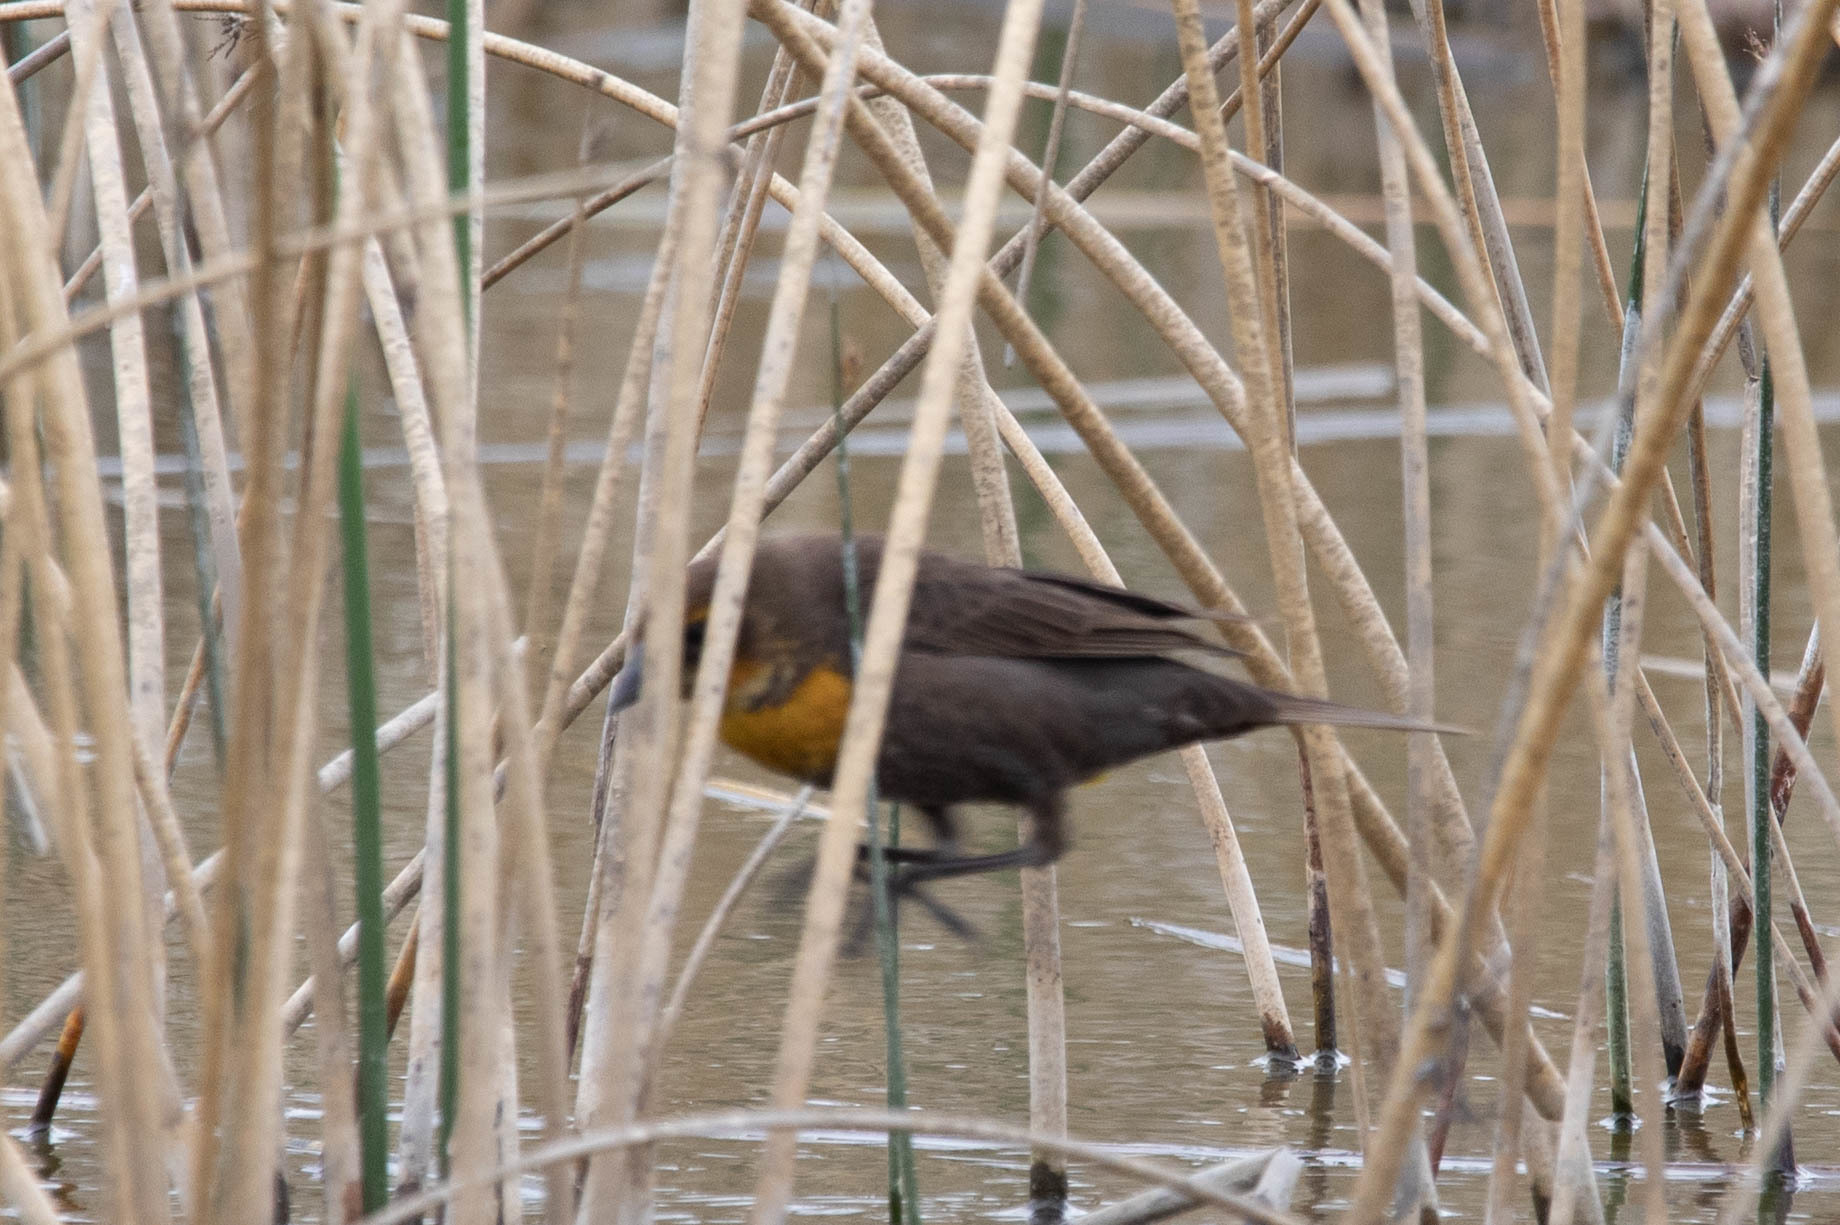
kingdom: Animalia
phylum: Chordata
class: Aves
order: Passeriformes
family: Icteridae
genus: Xanthocephalus
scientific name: Xanthocephalus xanthocephalus
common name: Yellow-headed blackbird
